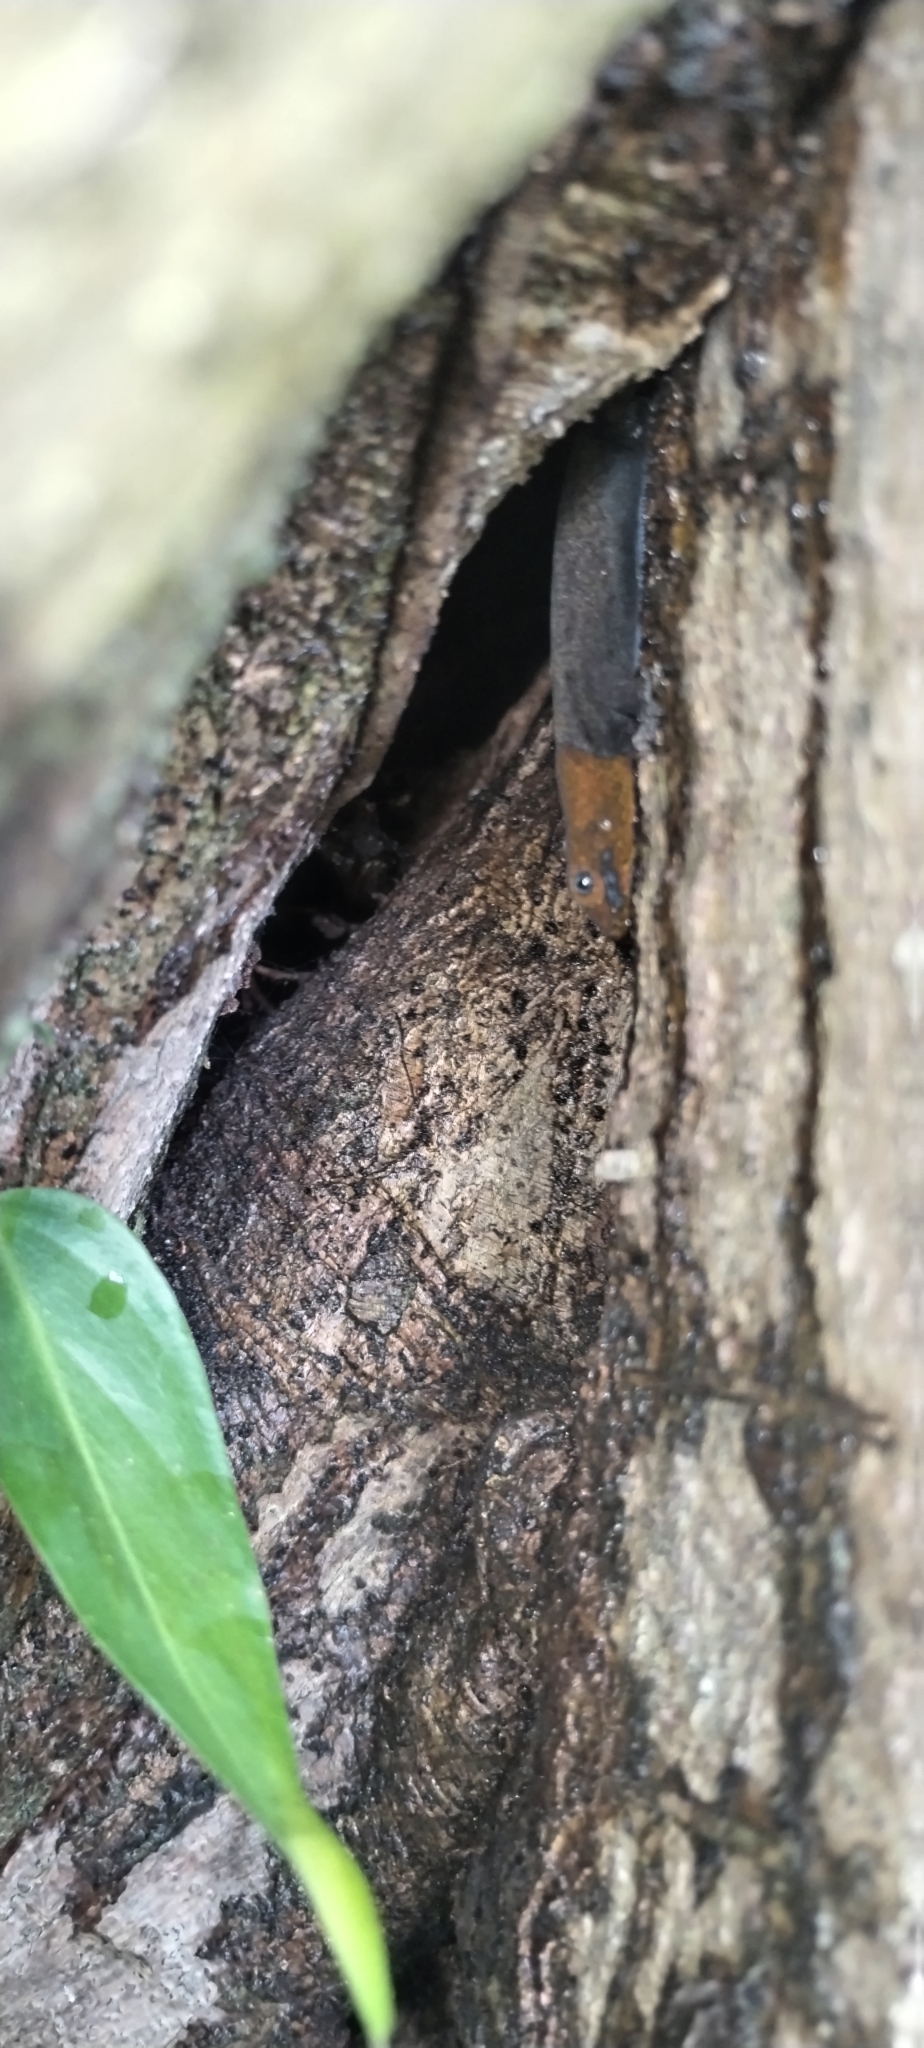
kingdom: Animalia
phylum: Chordata
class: Squamata
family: Sphaerodactylidae
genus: Gonatodes
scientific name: Gonatodes albogularis
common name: Yellow-headed gecko
